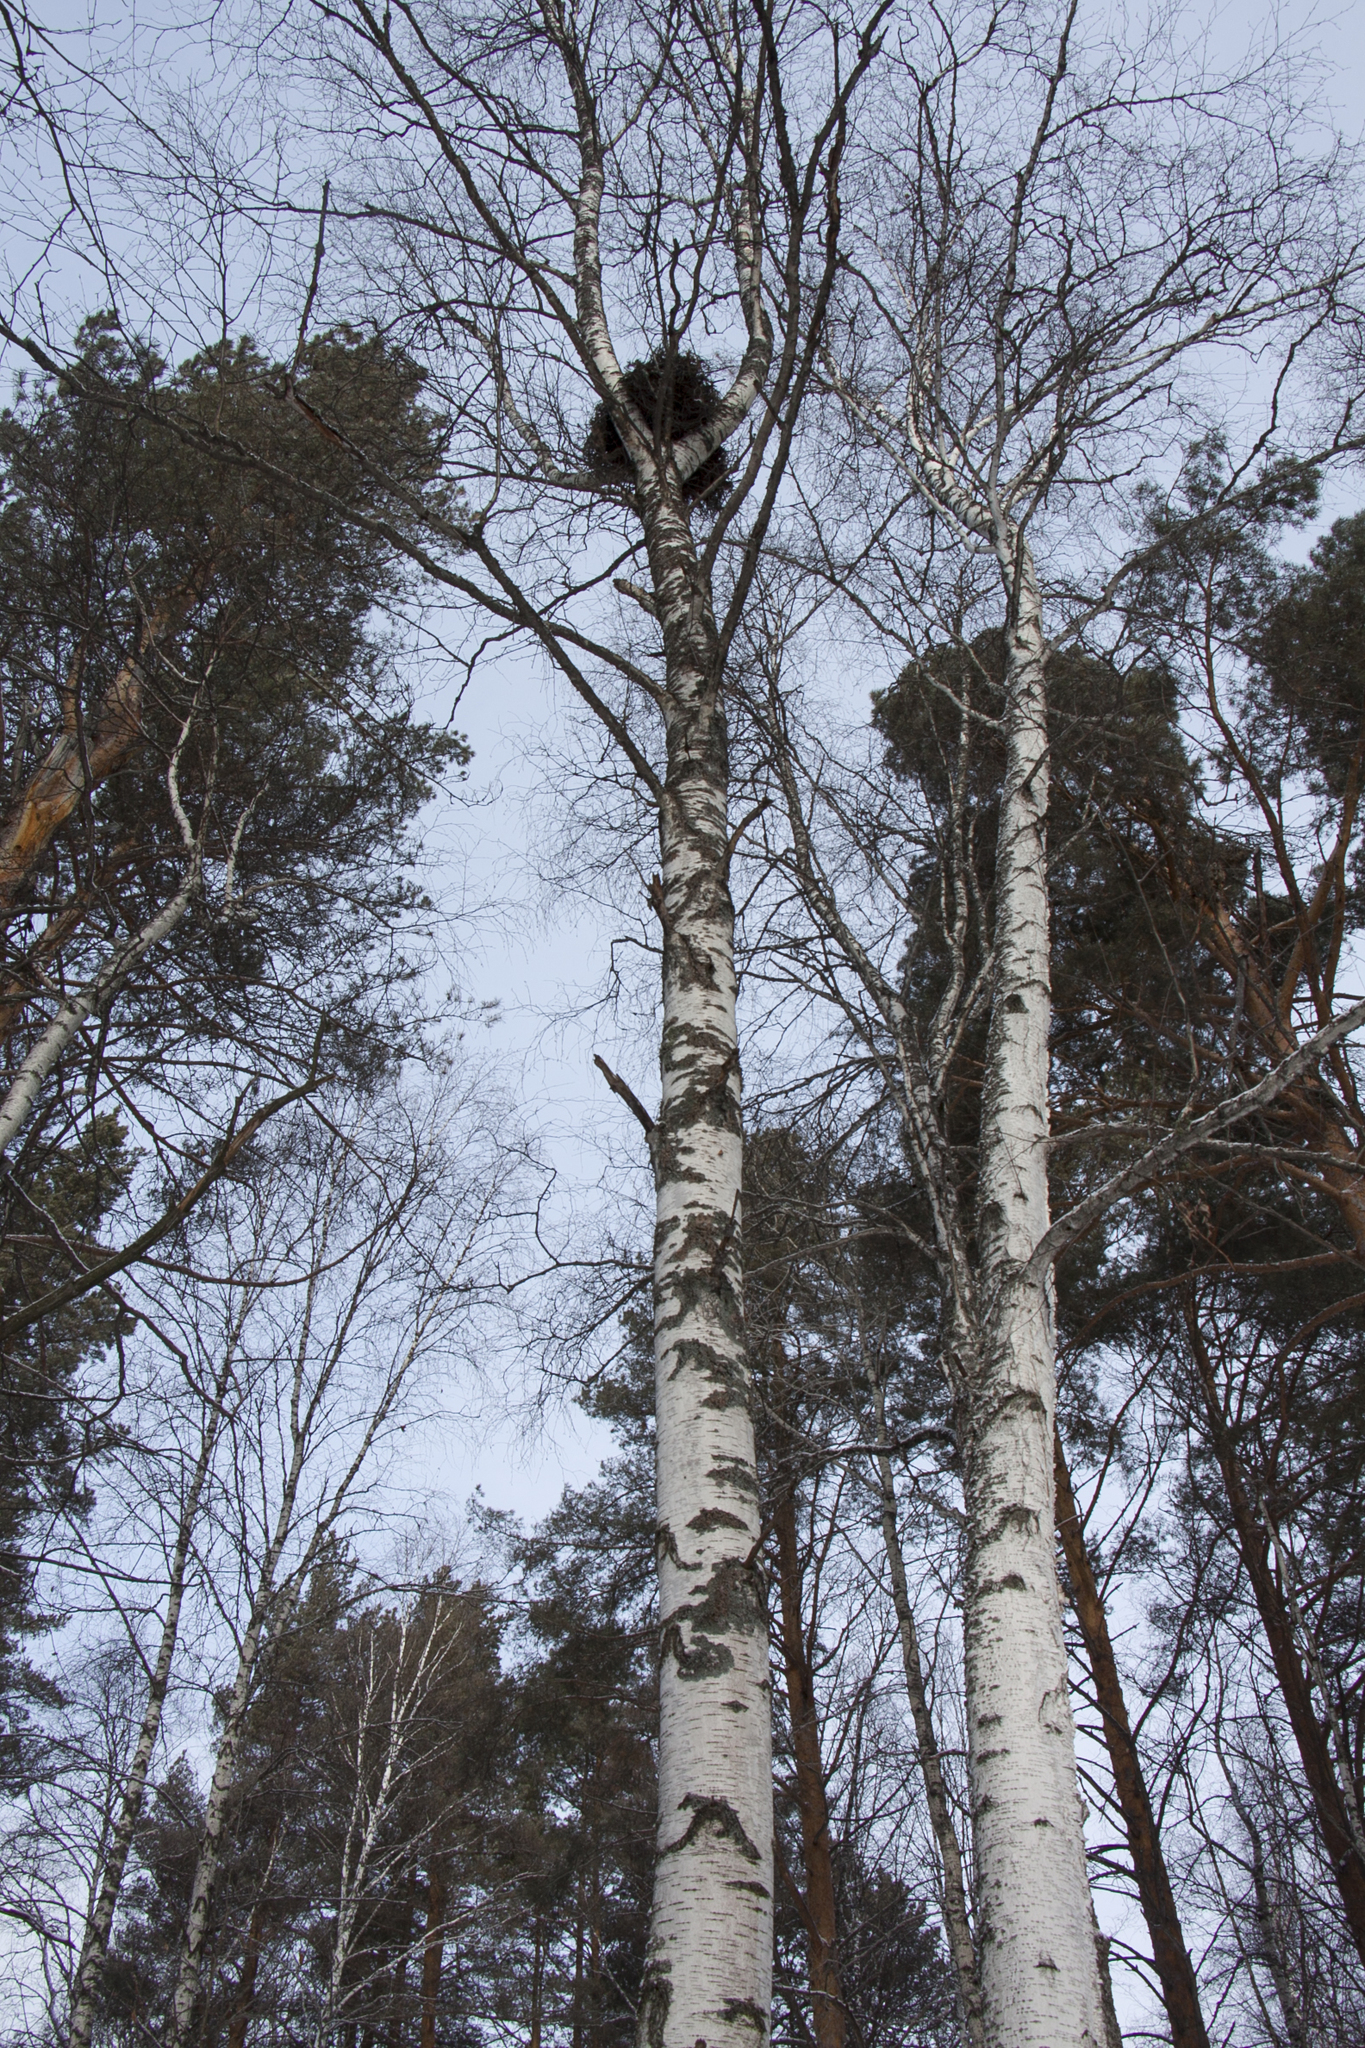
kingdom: Plantae
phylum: Tracheophyta
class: Magnoliopsida
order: Fagales
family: Betulaceae
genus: Betula
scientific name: Betula pendula
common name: Silver birch
